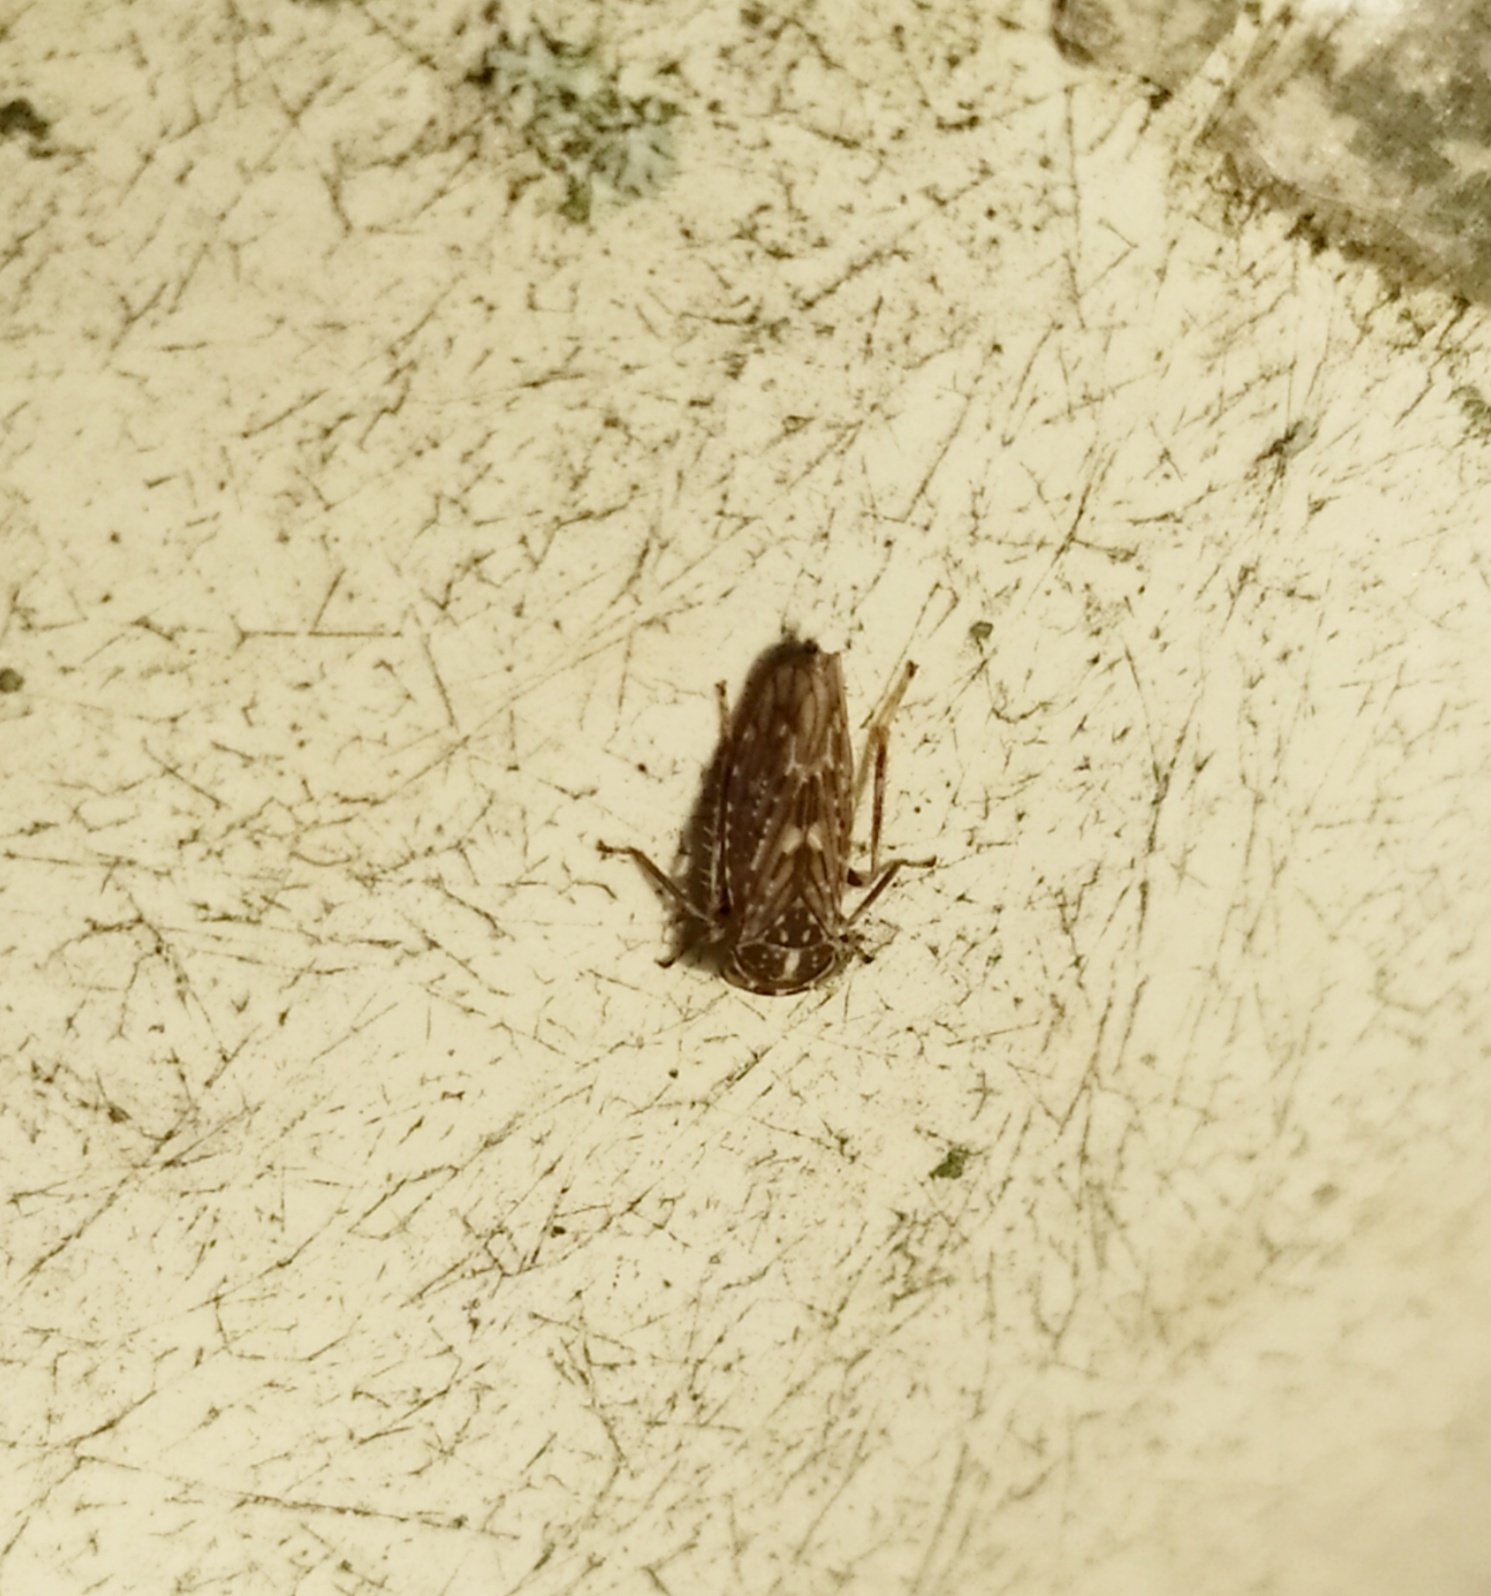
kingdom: Animalia
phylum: Arthropoda
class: Insecta
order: Hemiptera
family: Cicadellidae
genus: Idiocerus
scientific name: Idiocerus herrichii
